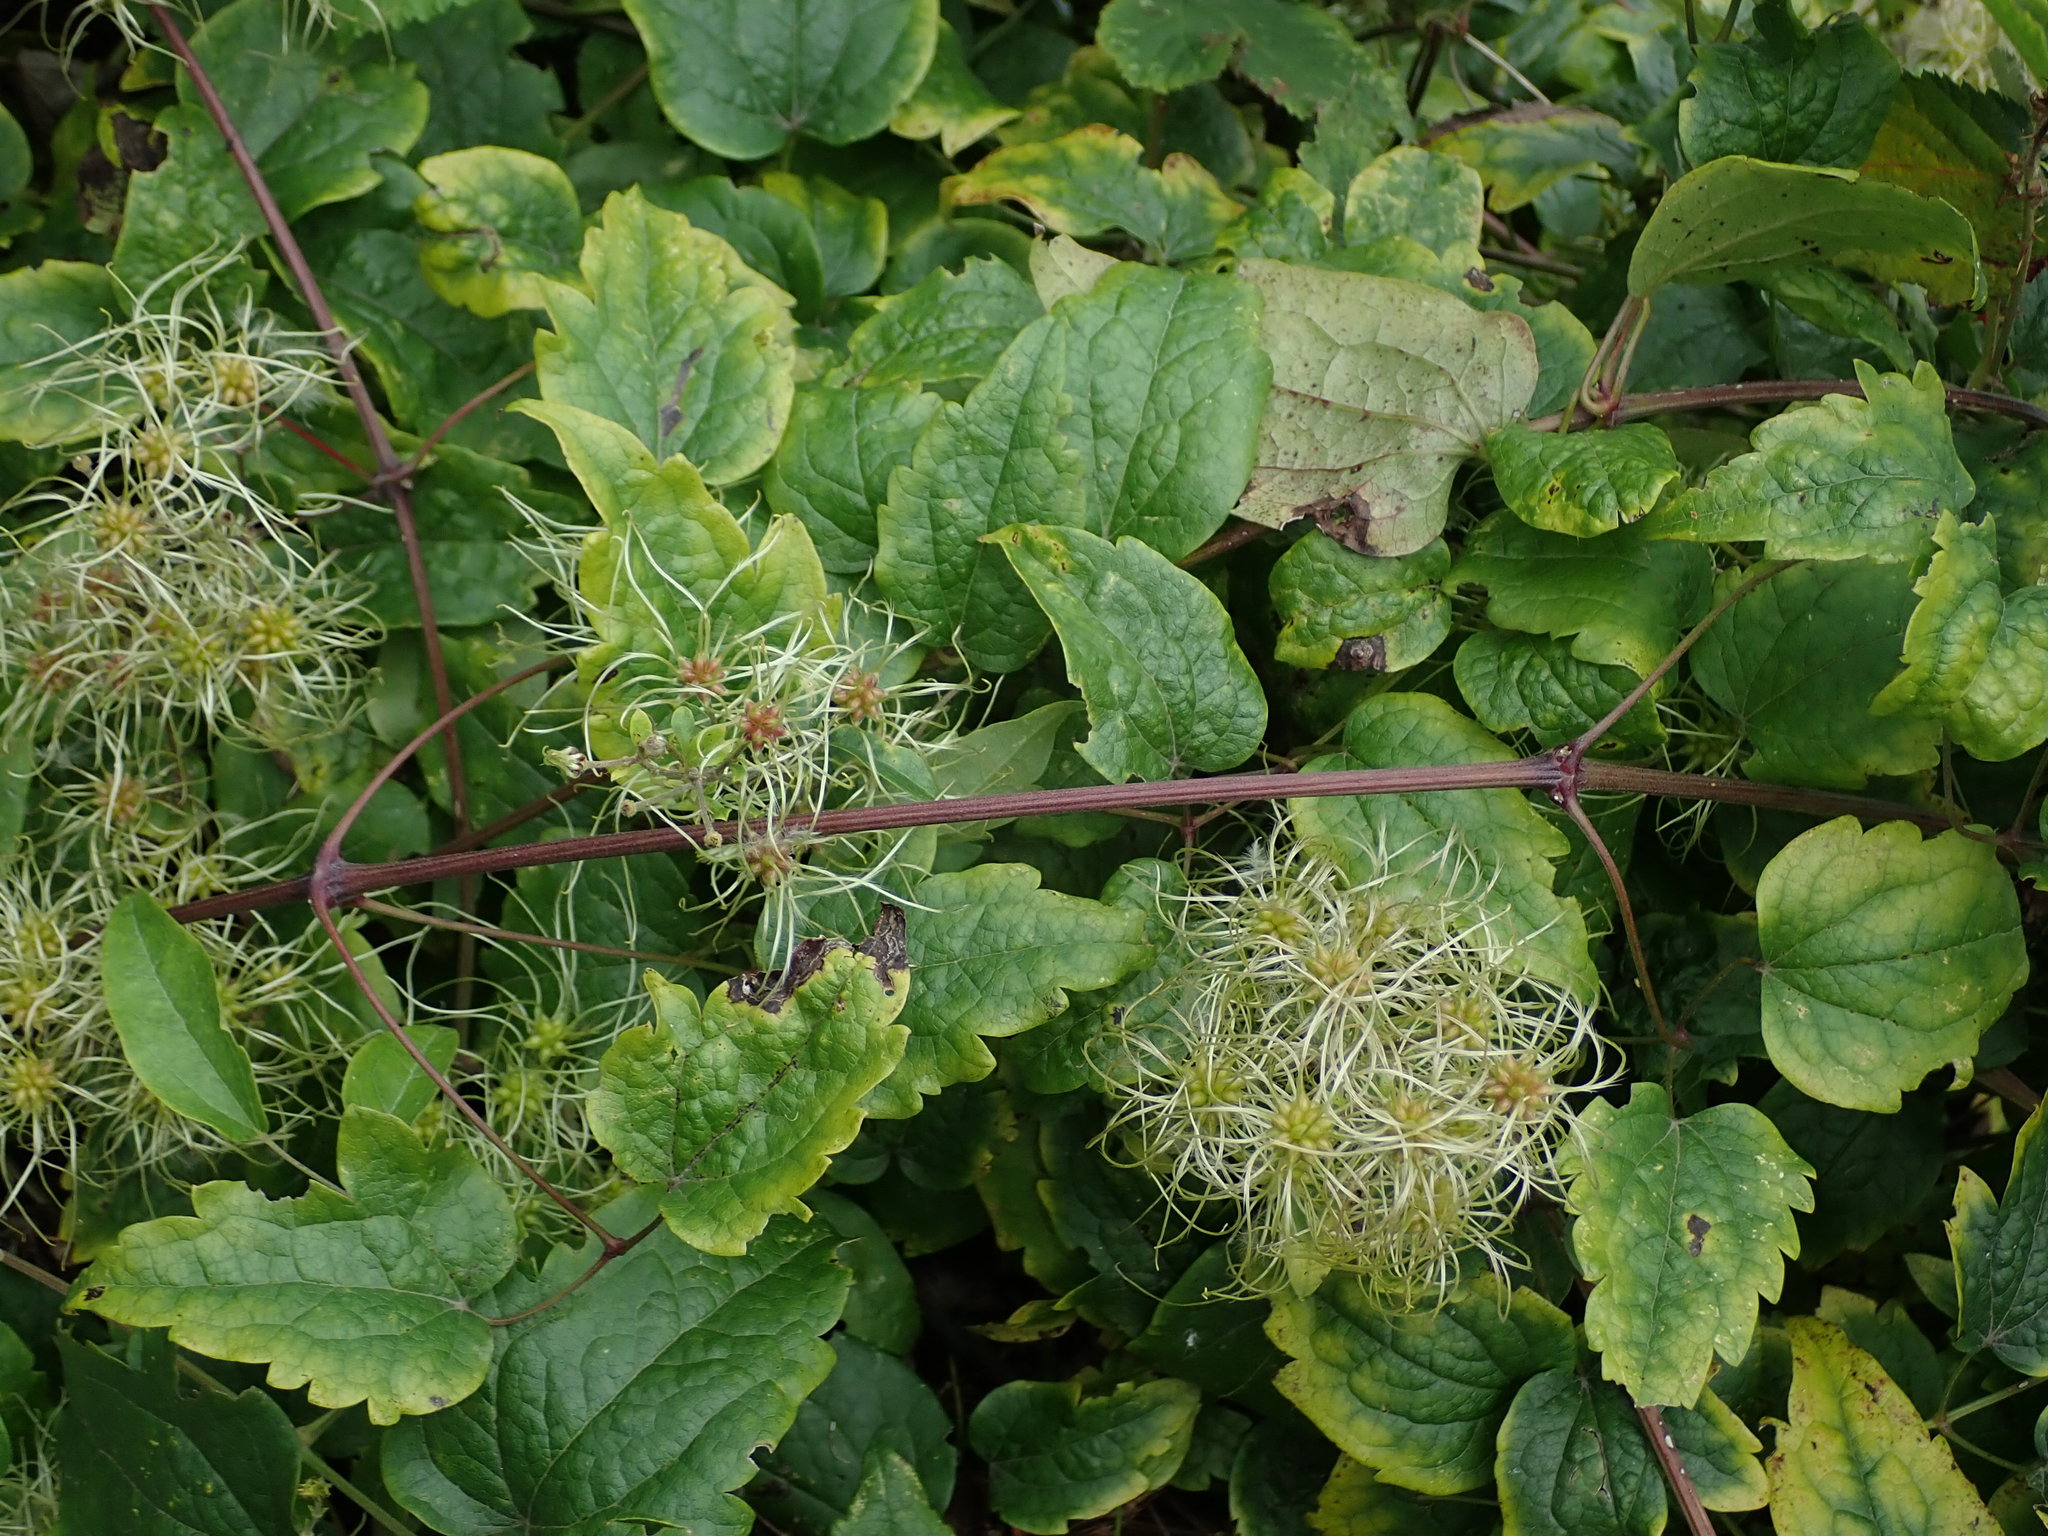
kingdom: Plantae
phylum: Tracheophyta
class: Magnoliopsida
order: Ranunculales
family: Ranunculaceae
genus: Clematis
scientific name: Clematis vitalba
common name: Evergreen clematis
